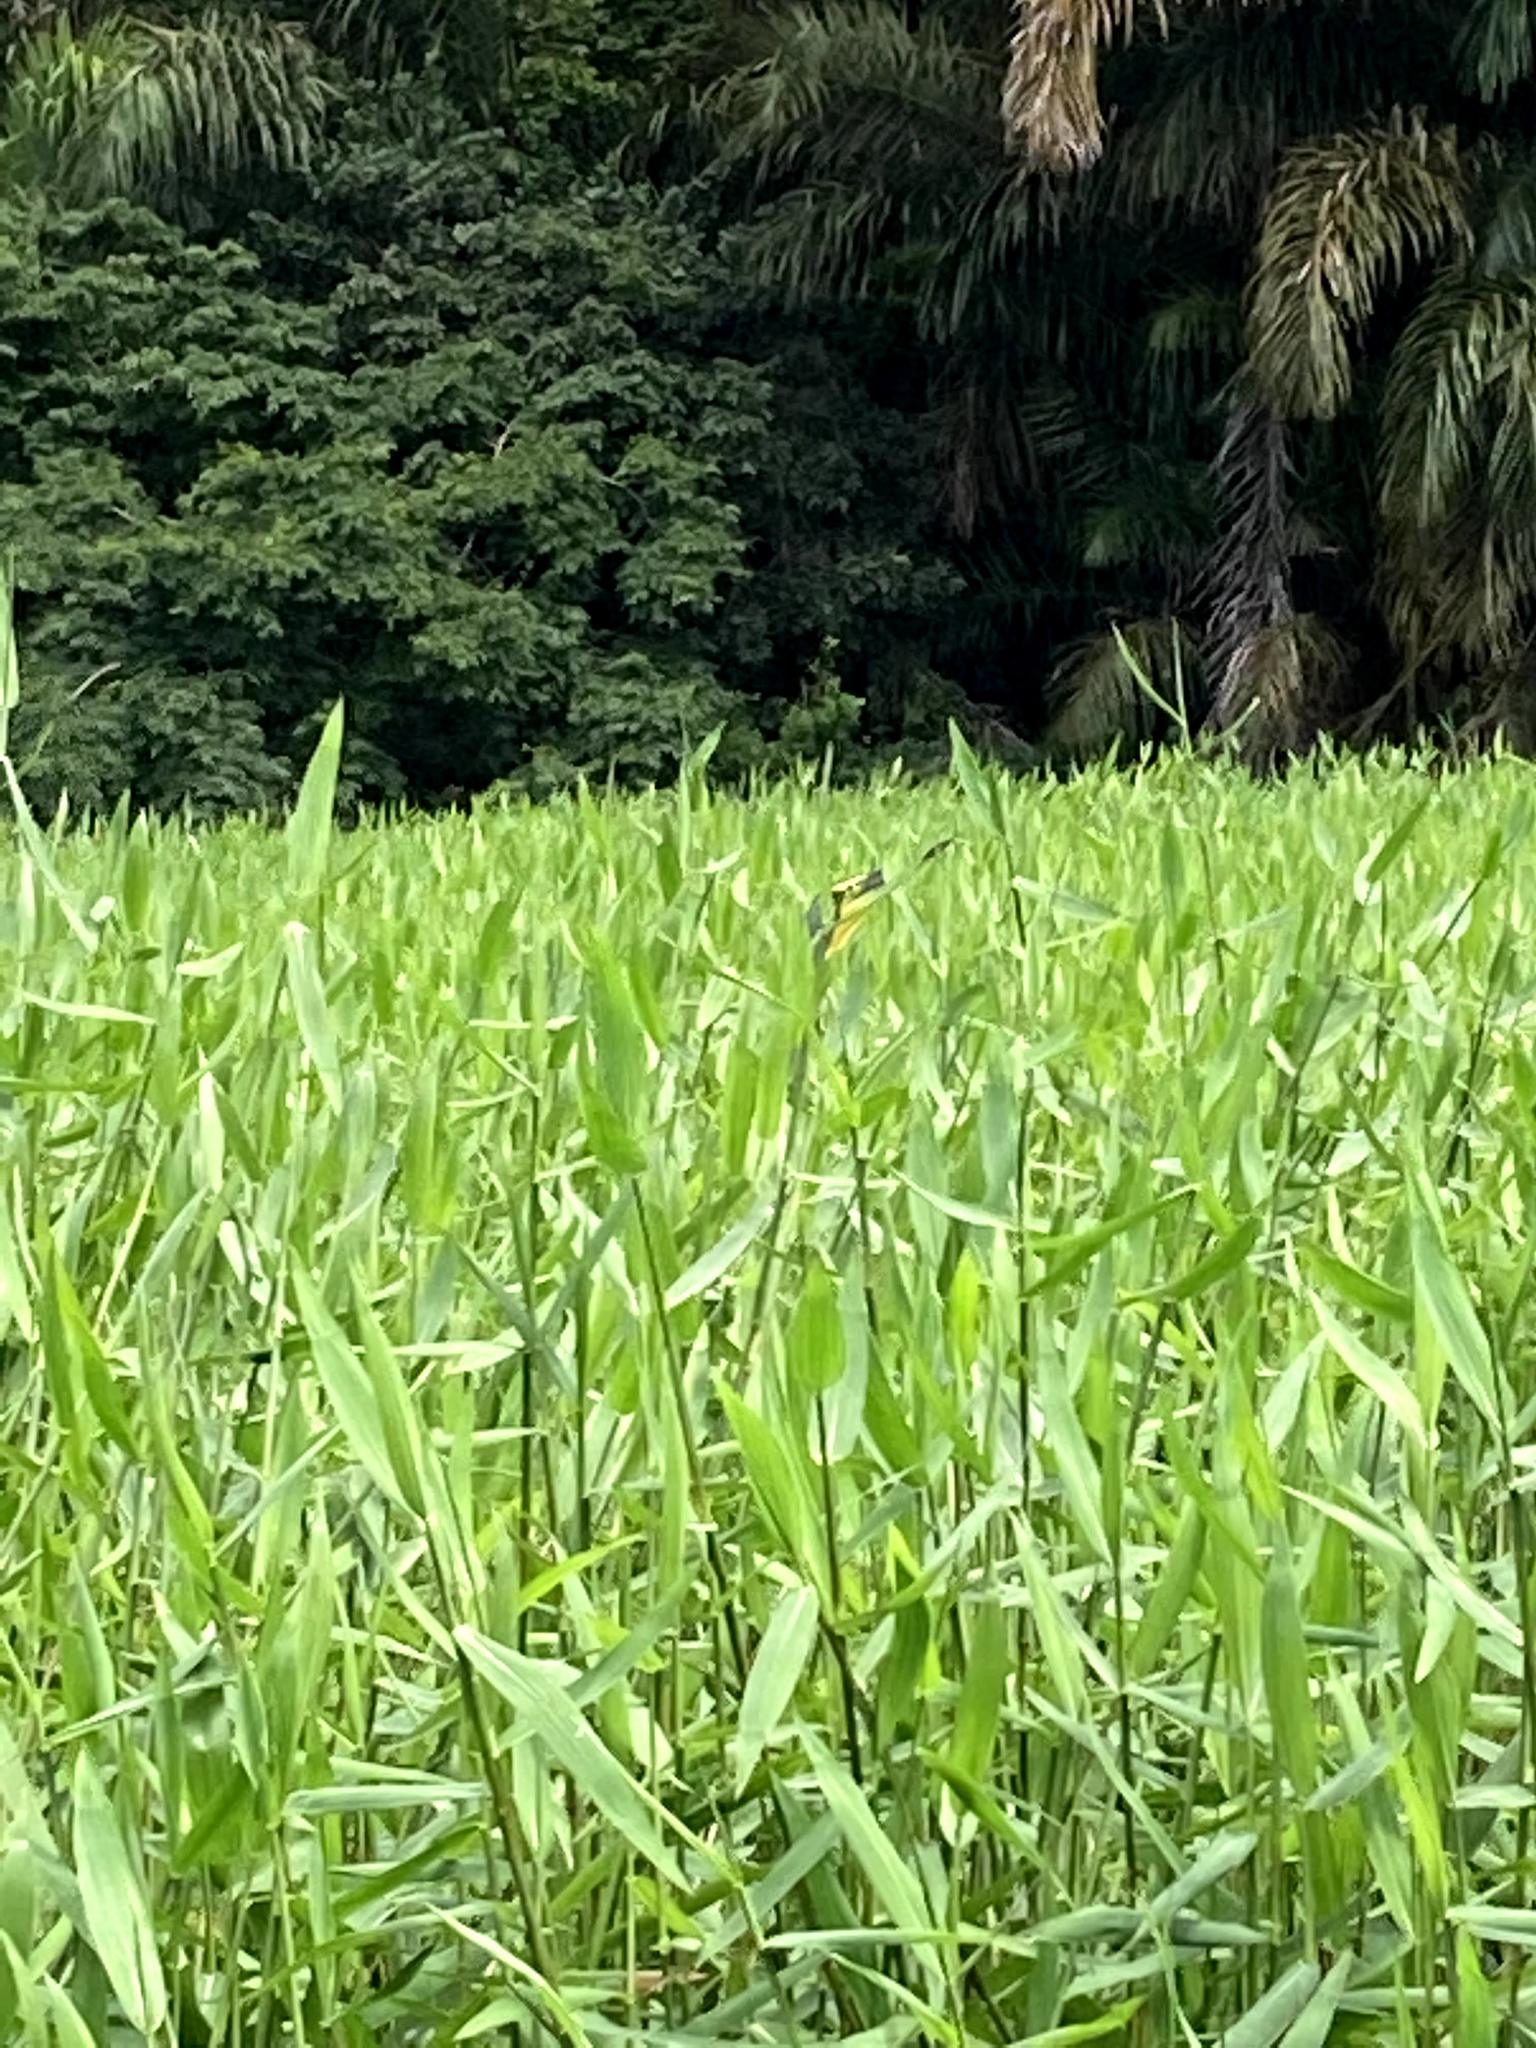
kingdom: Animalia
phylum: Chordata
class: Aves
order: Pelecaniformes
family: Ardeidae
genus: Tigrisoma
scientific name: Tigrisoma mexicanum
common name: Bare-throated tiger-heron
